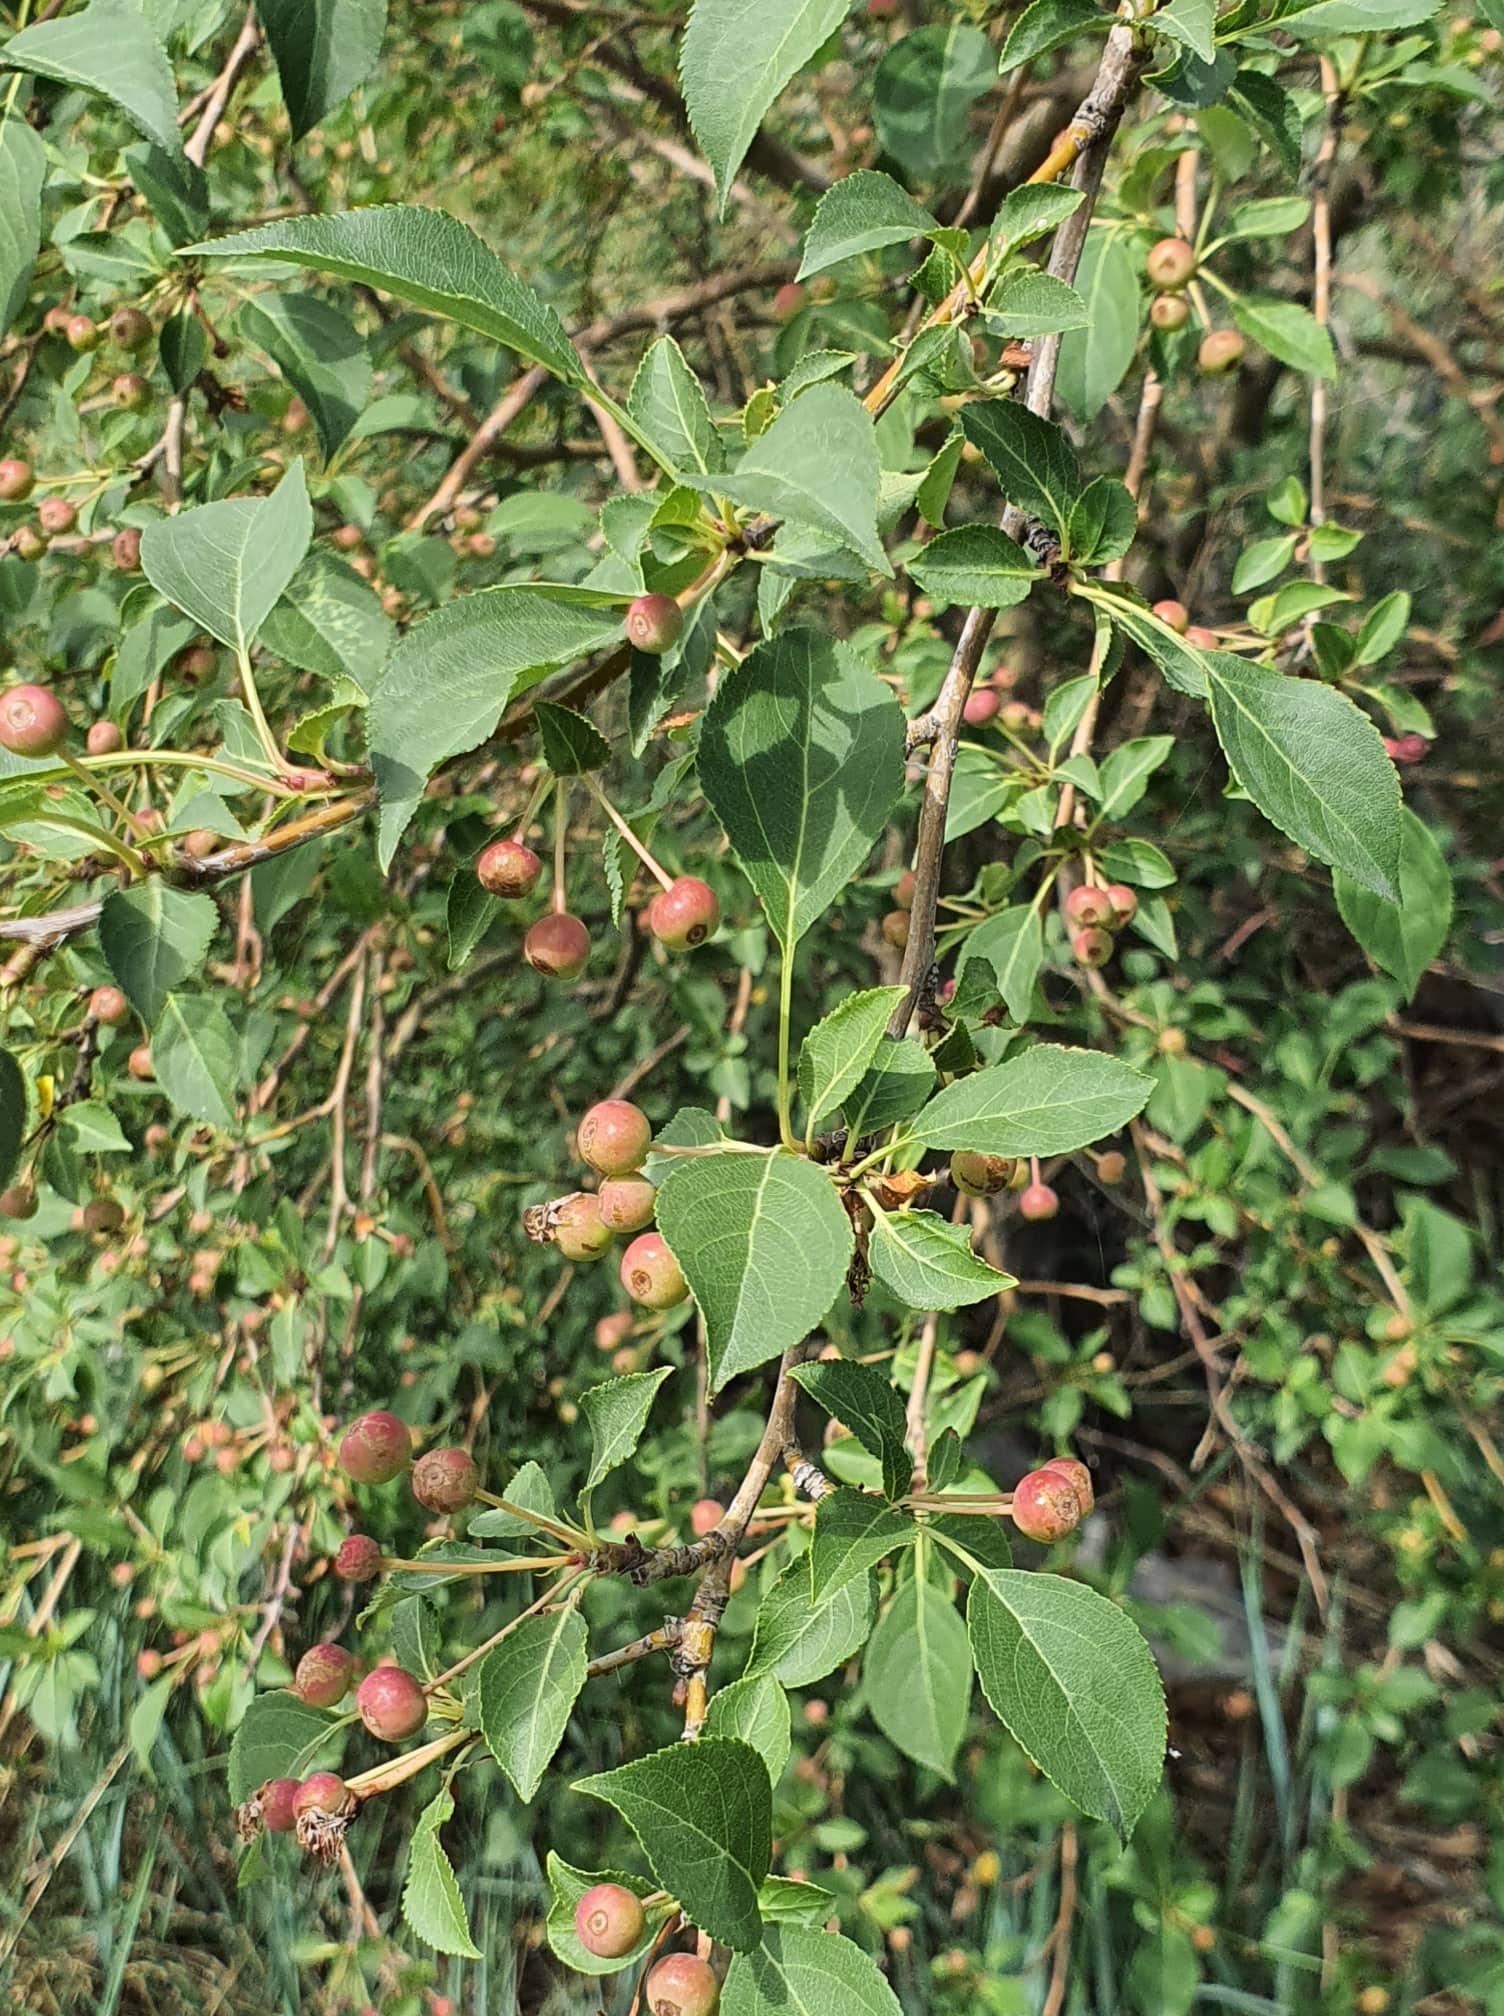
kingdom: Plantae
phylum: Tracheophyta
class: Magnoliopsida
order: Rosales
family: Rosaceae
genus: Malus
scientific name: Malus baccata
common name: Siberian crab
